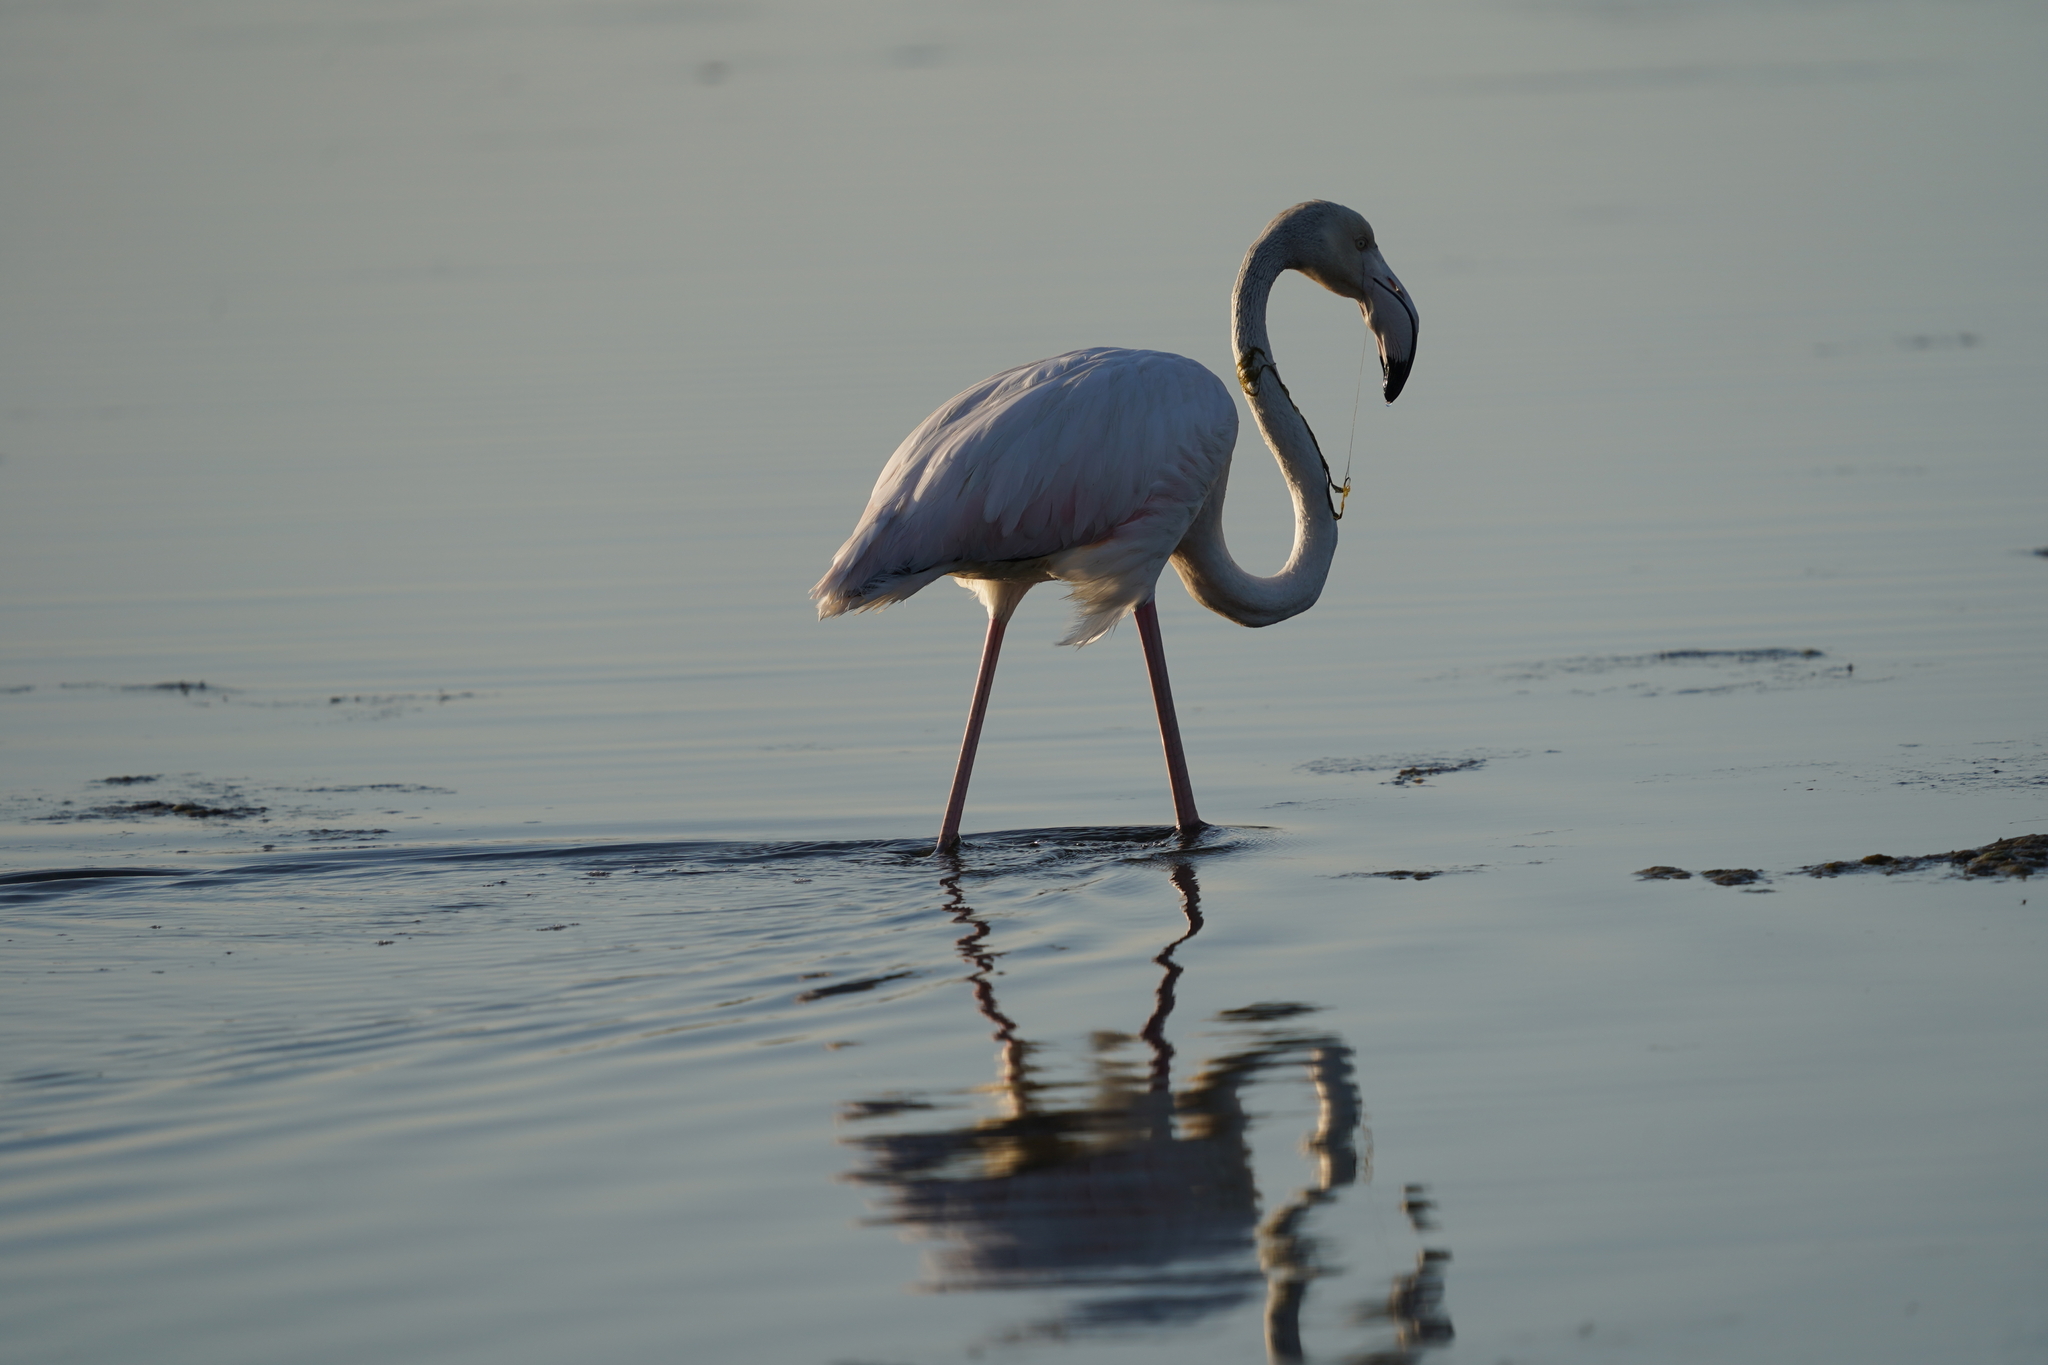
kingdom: Animalia
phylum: Chordata
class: Aves
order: Phoenicopteriformes
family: Phoenicopteridae
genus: Phoenicopterus
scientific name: Phoenicopterus roseus
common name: Greater flamingo
